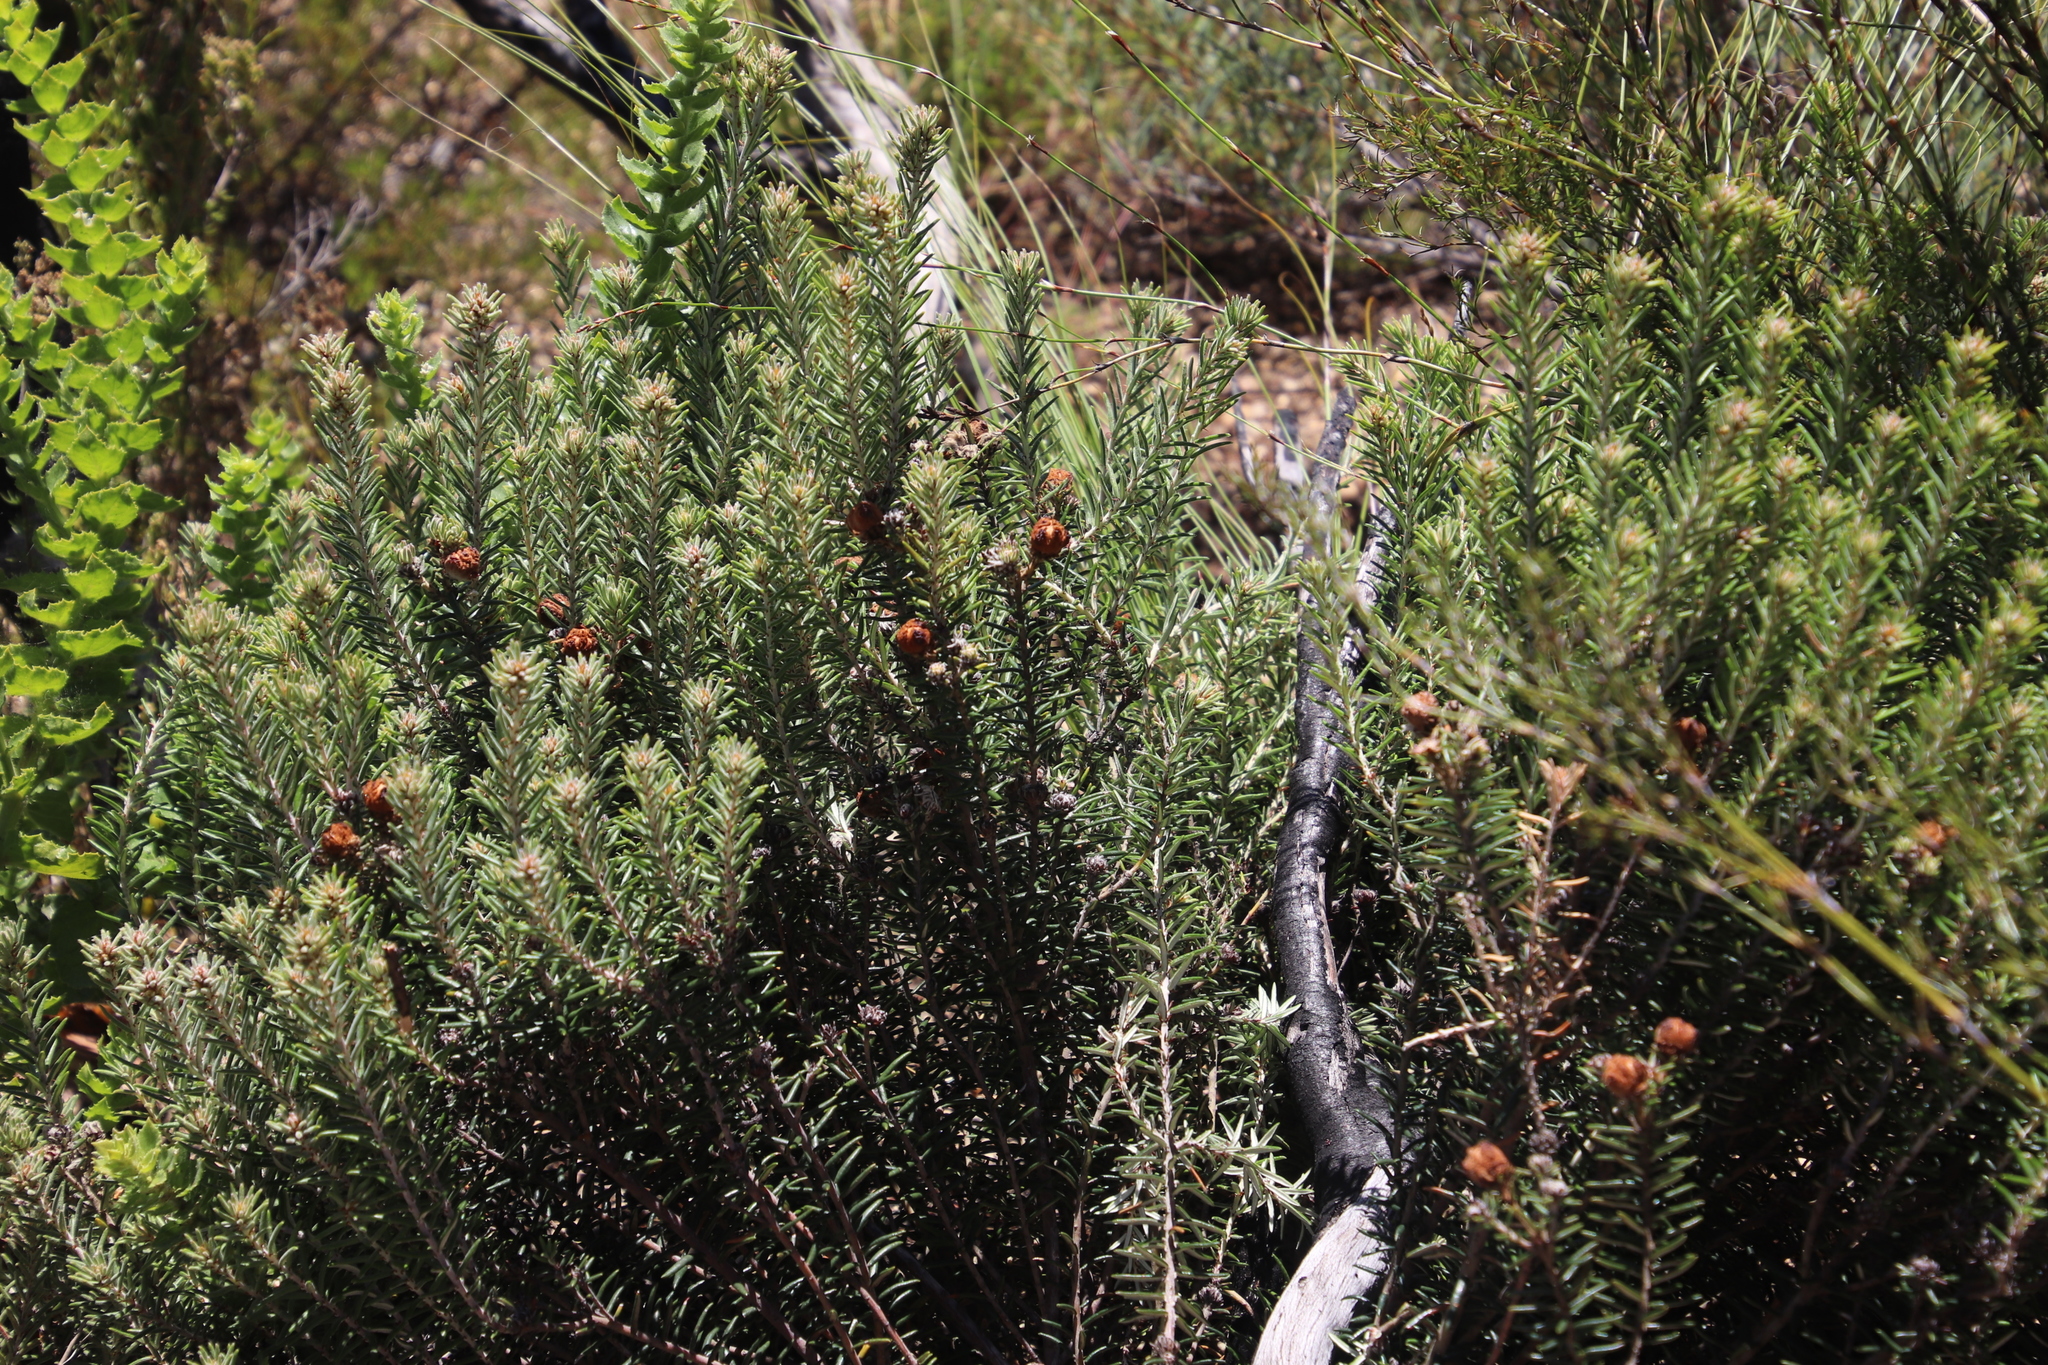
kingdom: Plantae
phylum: Tracheophyta
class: Magnoliopsida
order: Rosales
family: Rhamnaceae
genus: Trichocephalus
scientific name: Trichocephalus stipularis
